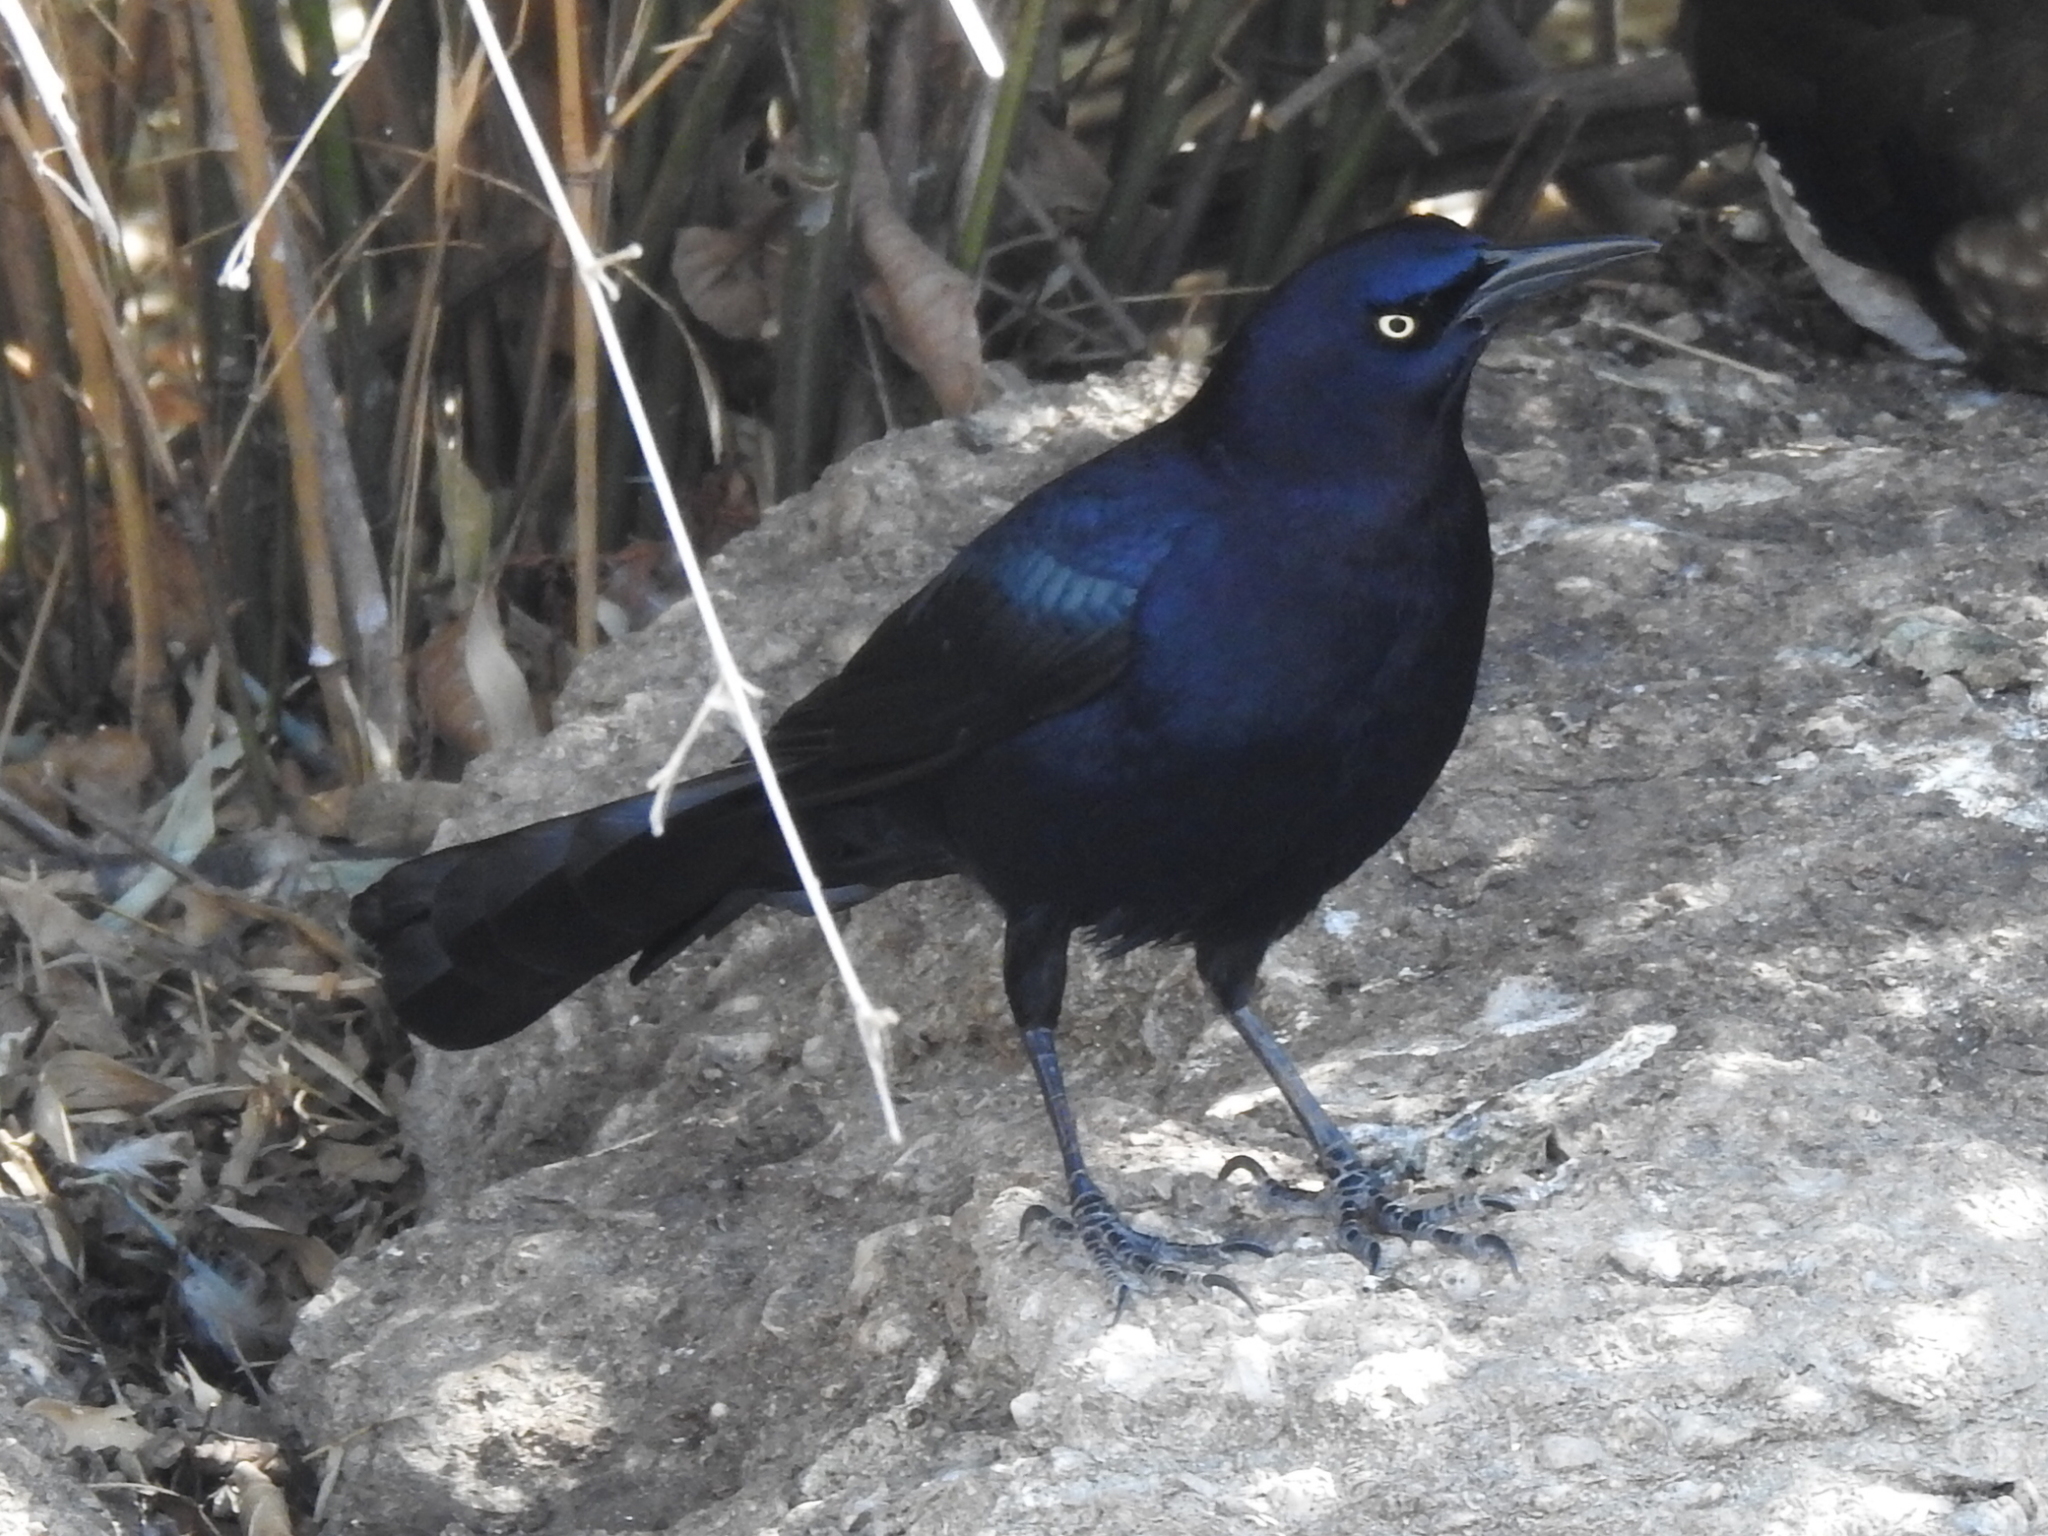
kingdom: Animalia
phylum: Chordata
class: Aves
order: Passeriformes
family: Icteridae
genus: Quiscalus
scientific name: Quiscalus mexicanus
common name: Great-tailed grackle
